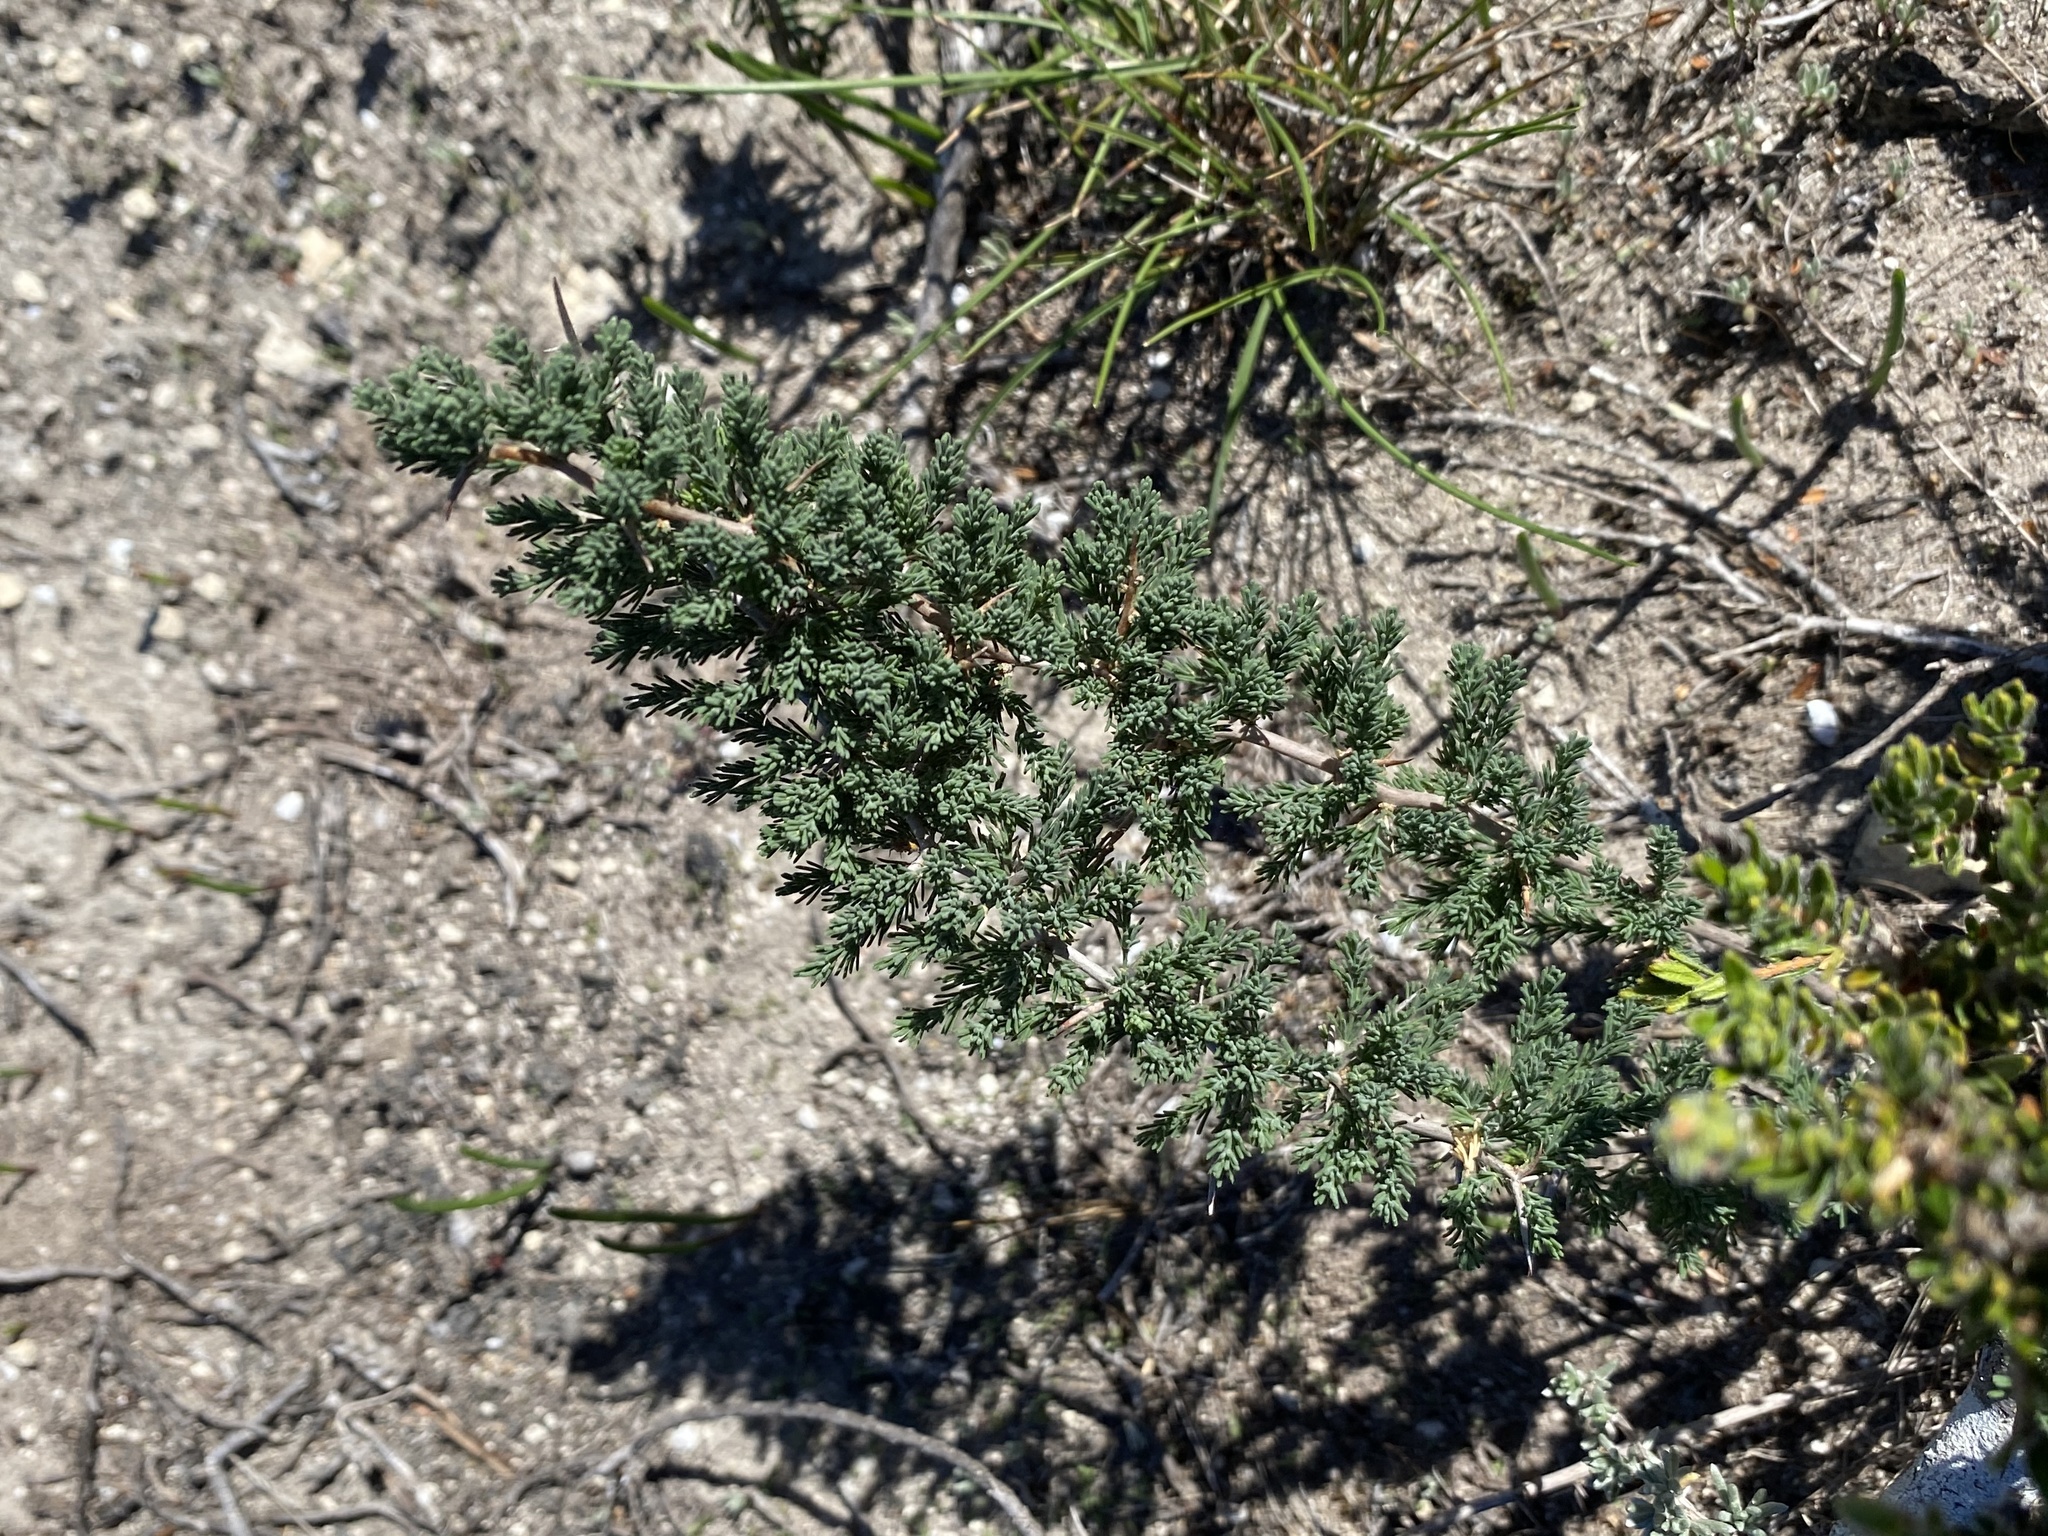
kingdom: Plantae
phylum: Tracheophyta
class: Liliopsida
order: Asparagales
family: Asparagaceae
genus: Asparagus
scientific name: Asparagus capensis
